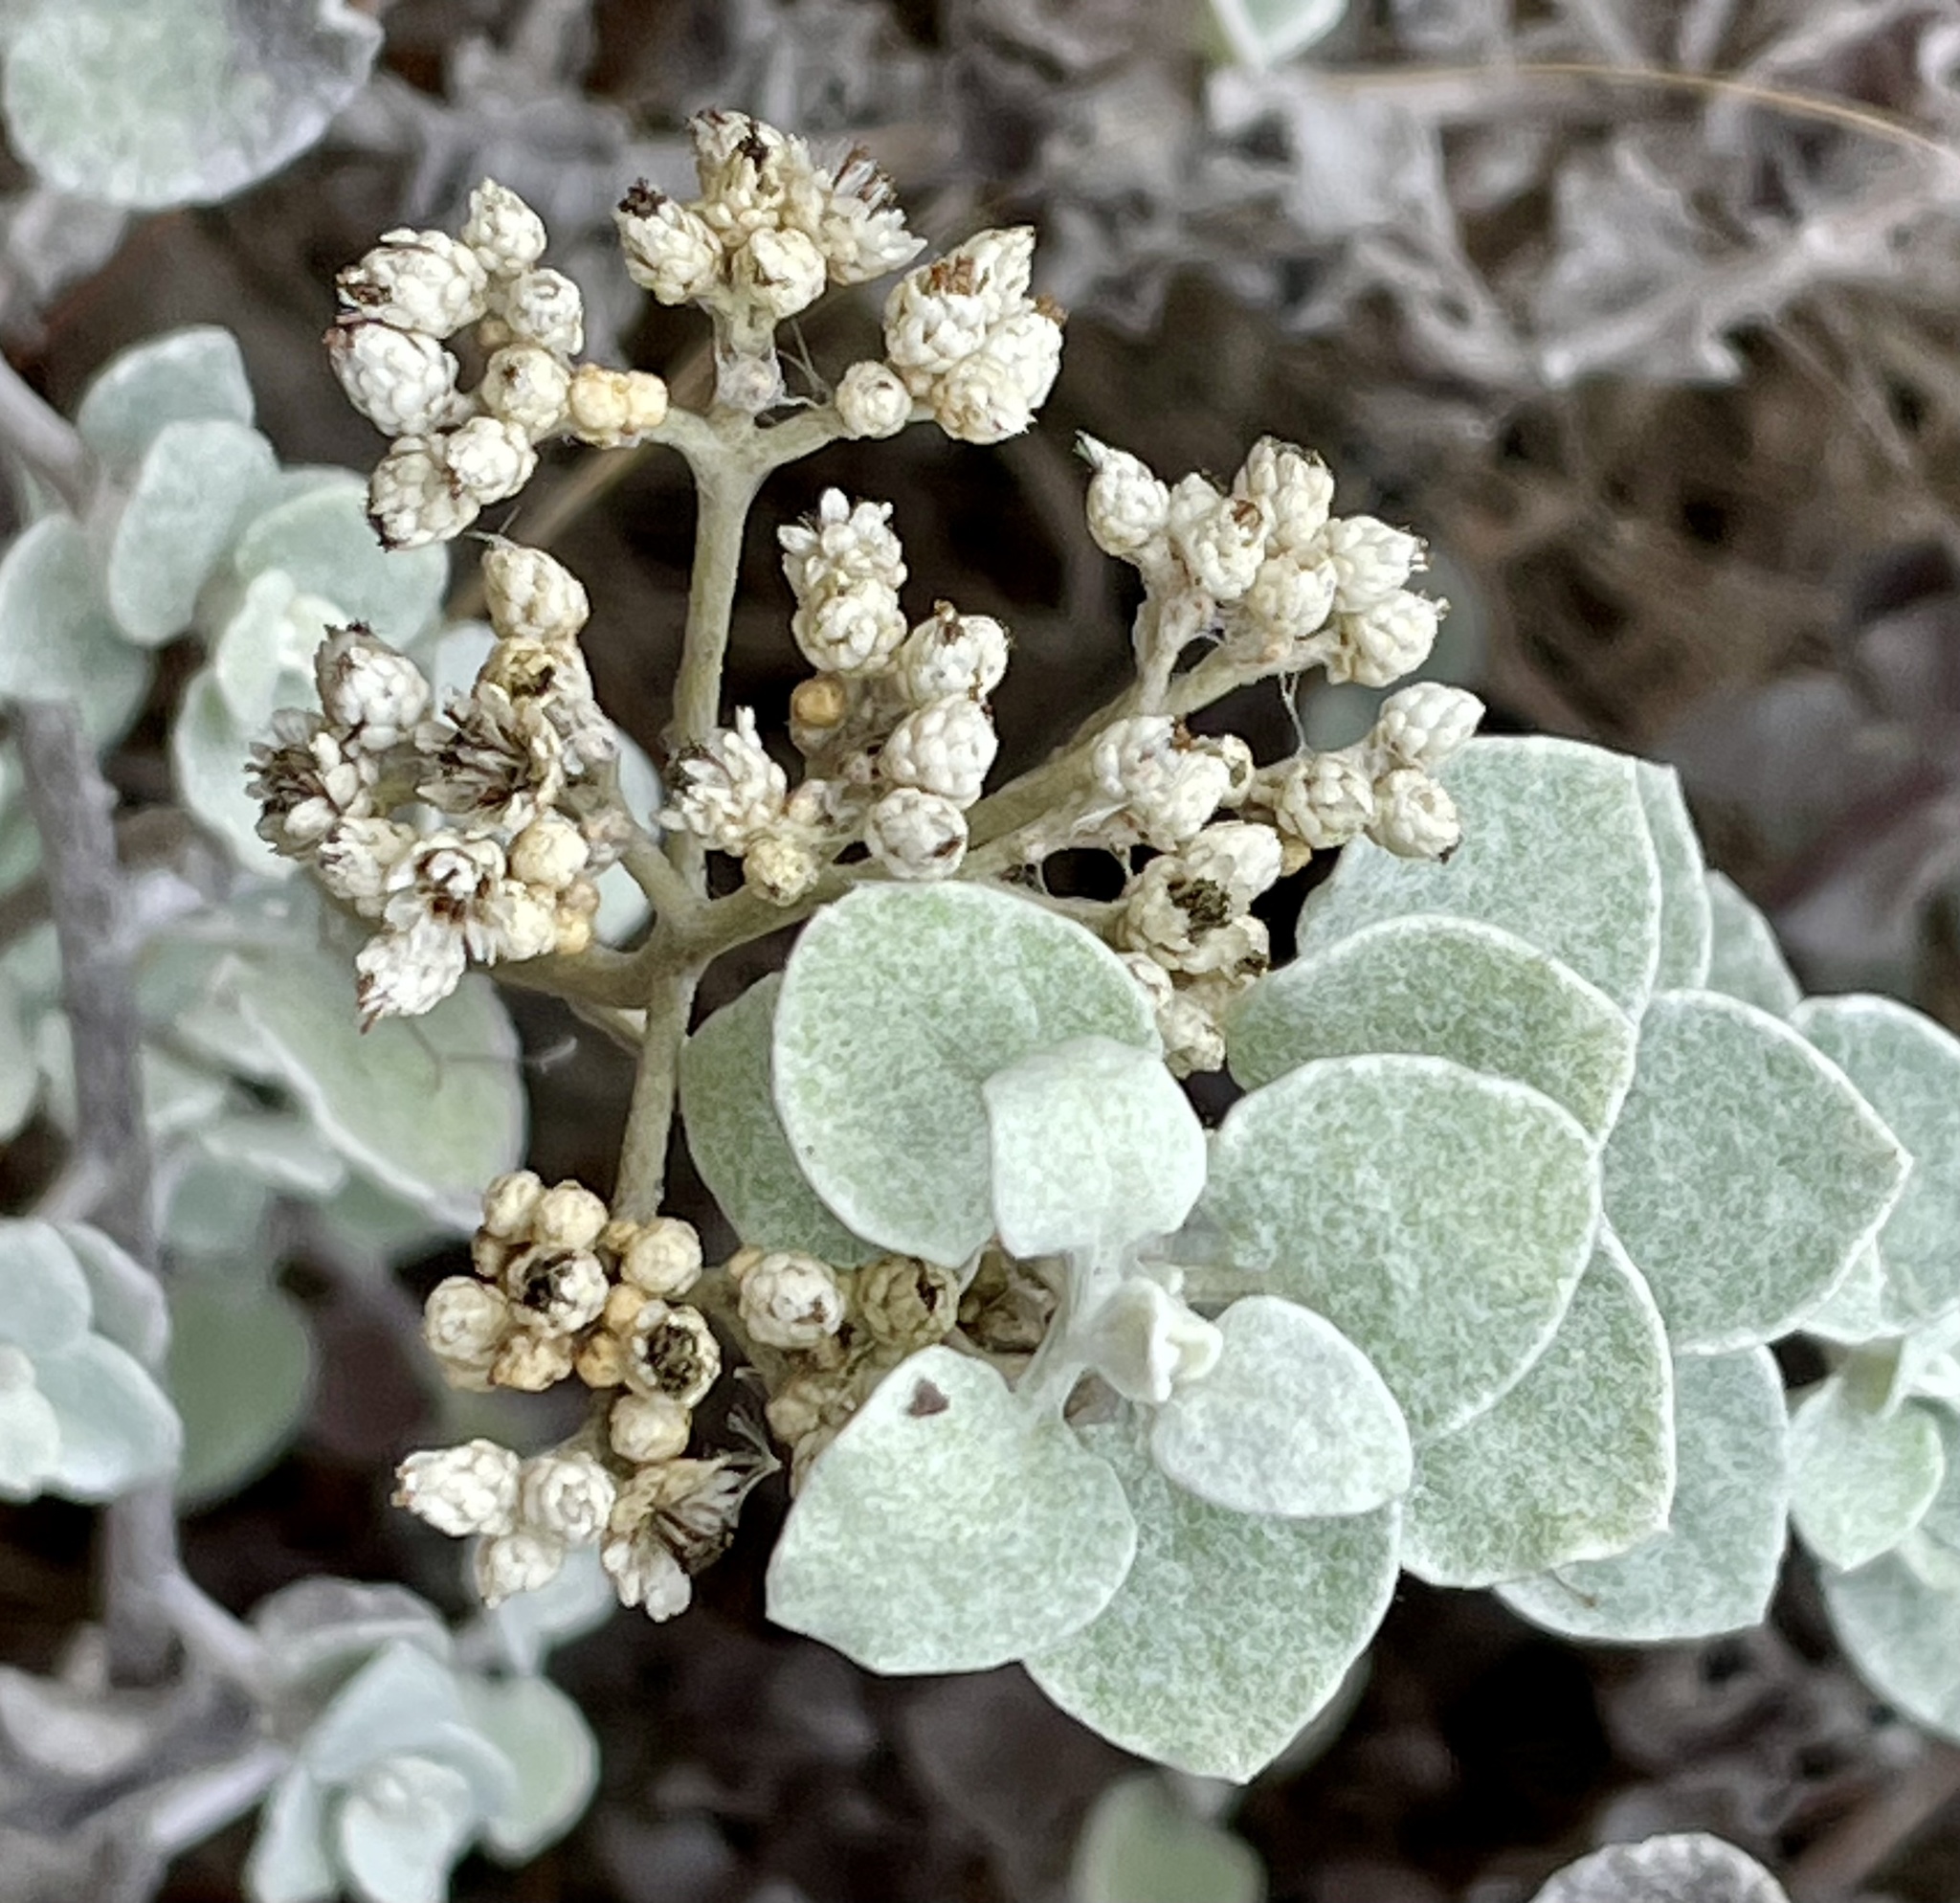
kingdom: Plantae
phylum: Tracheophyta
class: Magnoliopsida
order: Asterales
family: Asteraceae
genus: Helichrysum
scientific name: Helichrysum petiolare
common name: Licorice-plant
